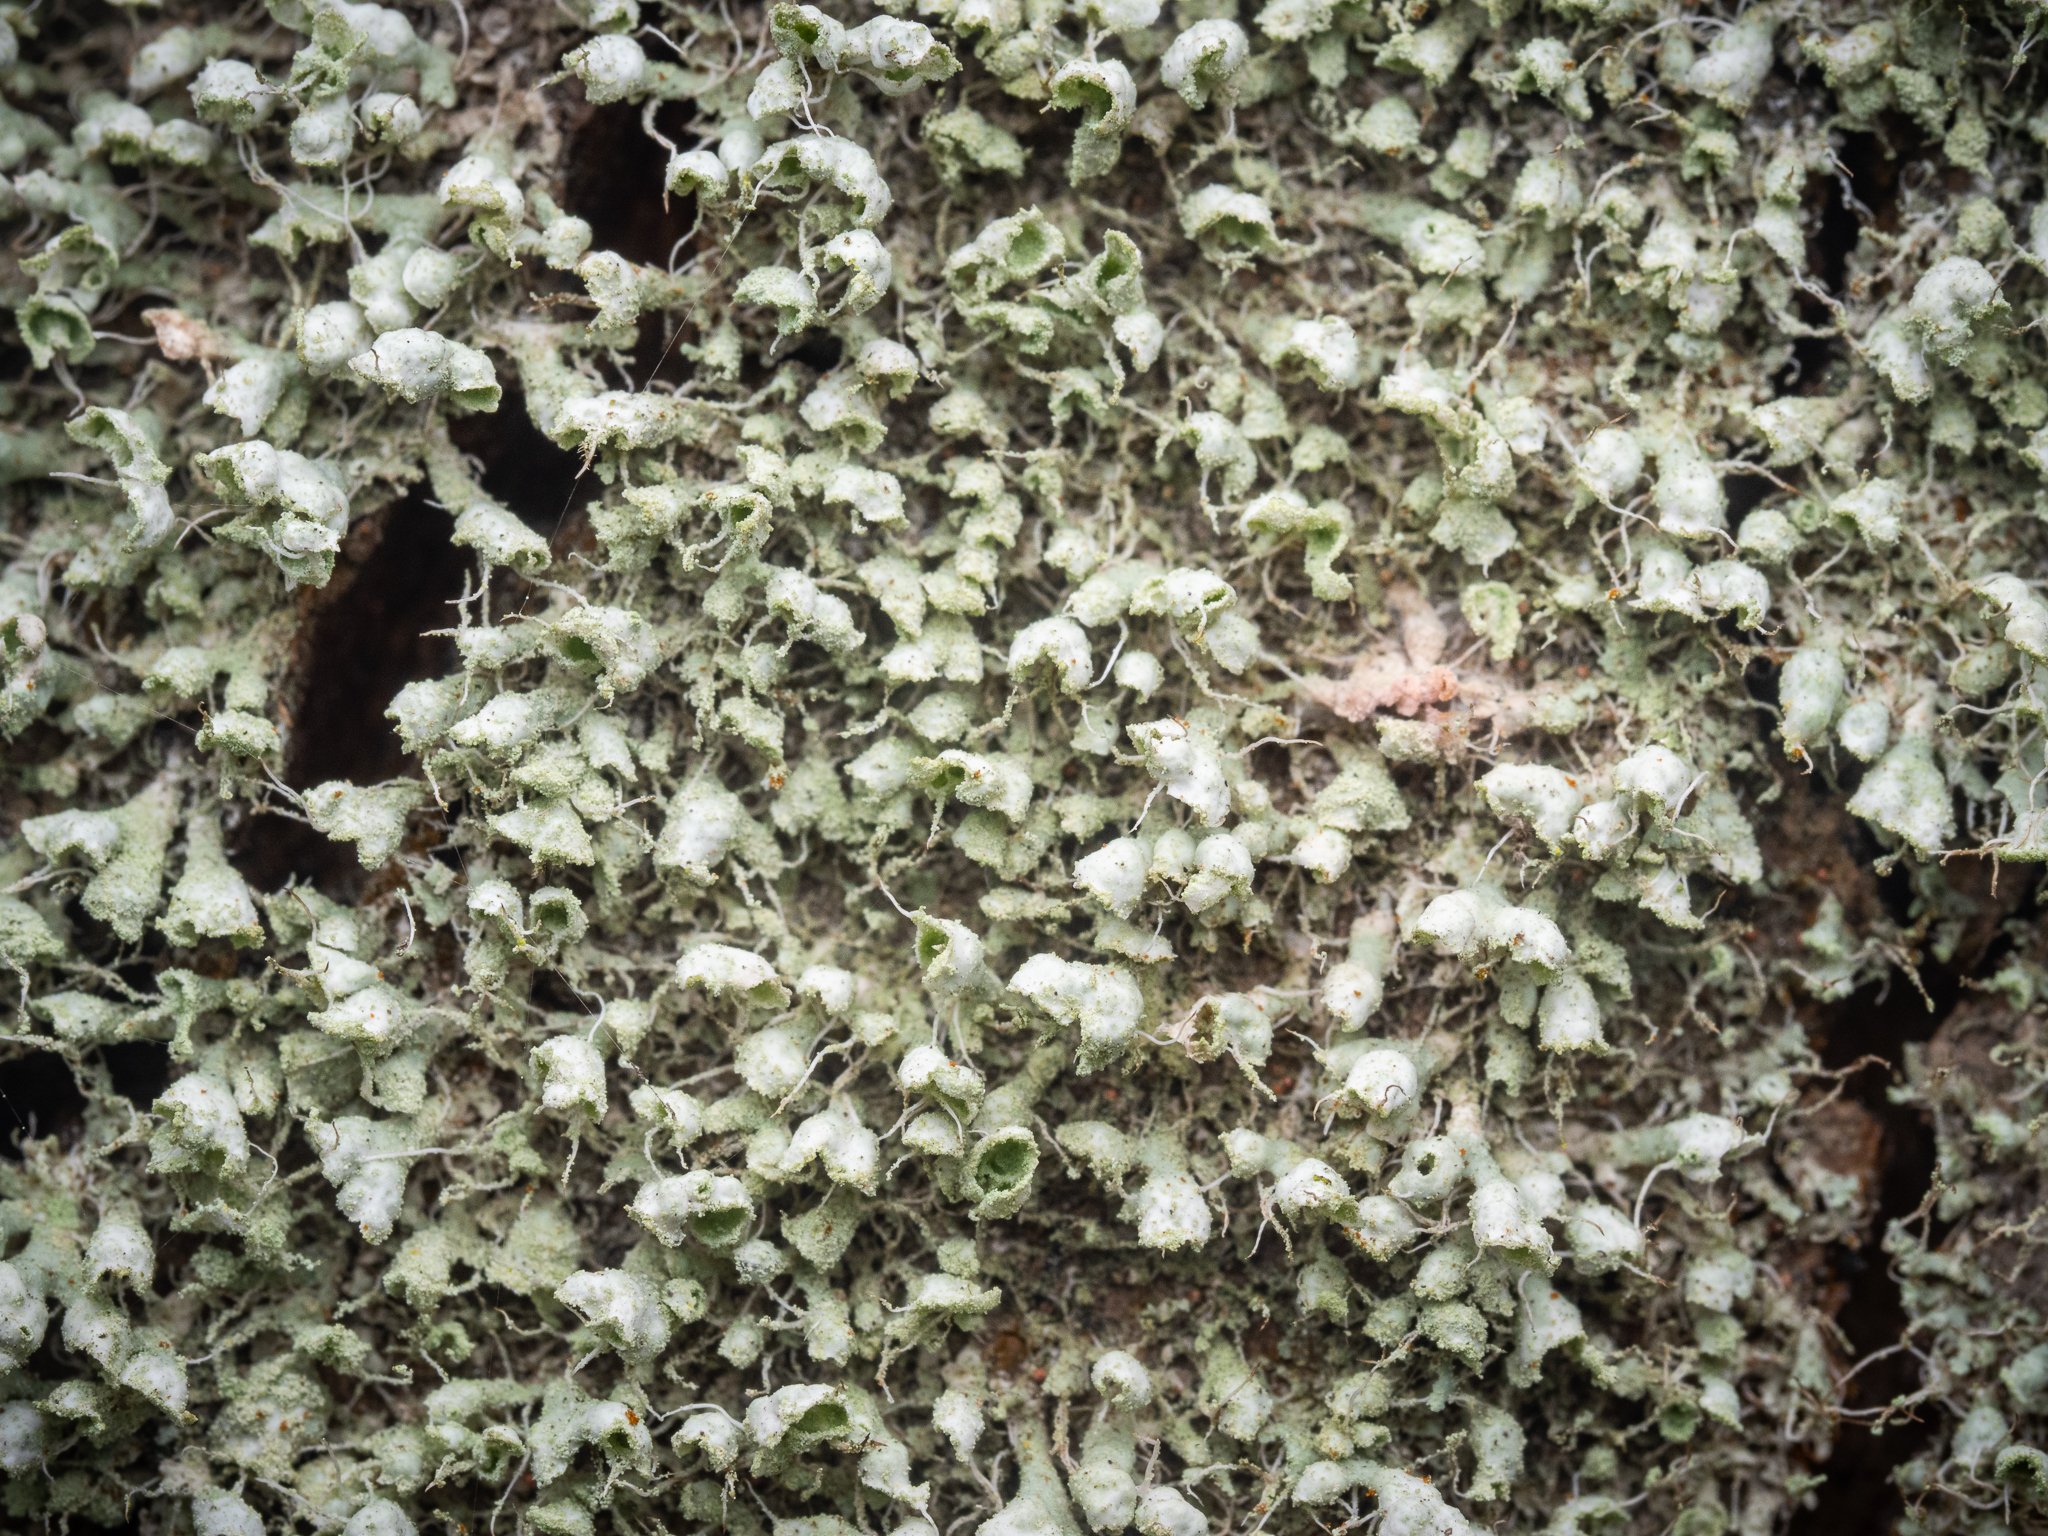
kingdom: Fungi
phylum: Ascomycota
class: Lecanoromycetes
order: Caliciales
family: Physciaceae
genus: Physcia
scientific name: Physcia adscendens
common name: Hooded rosette lichen
